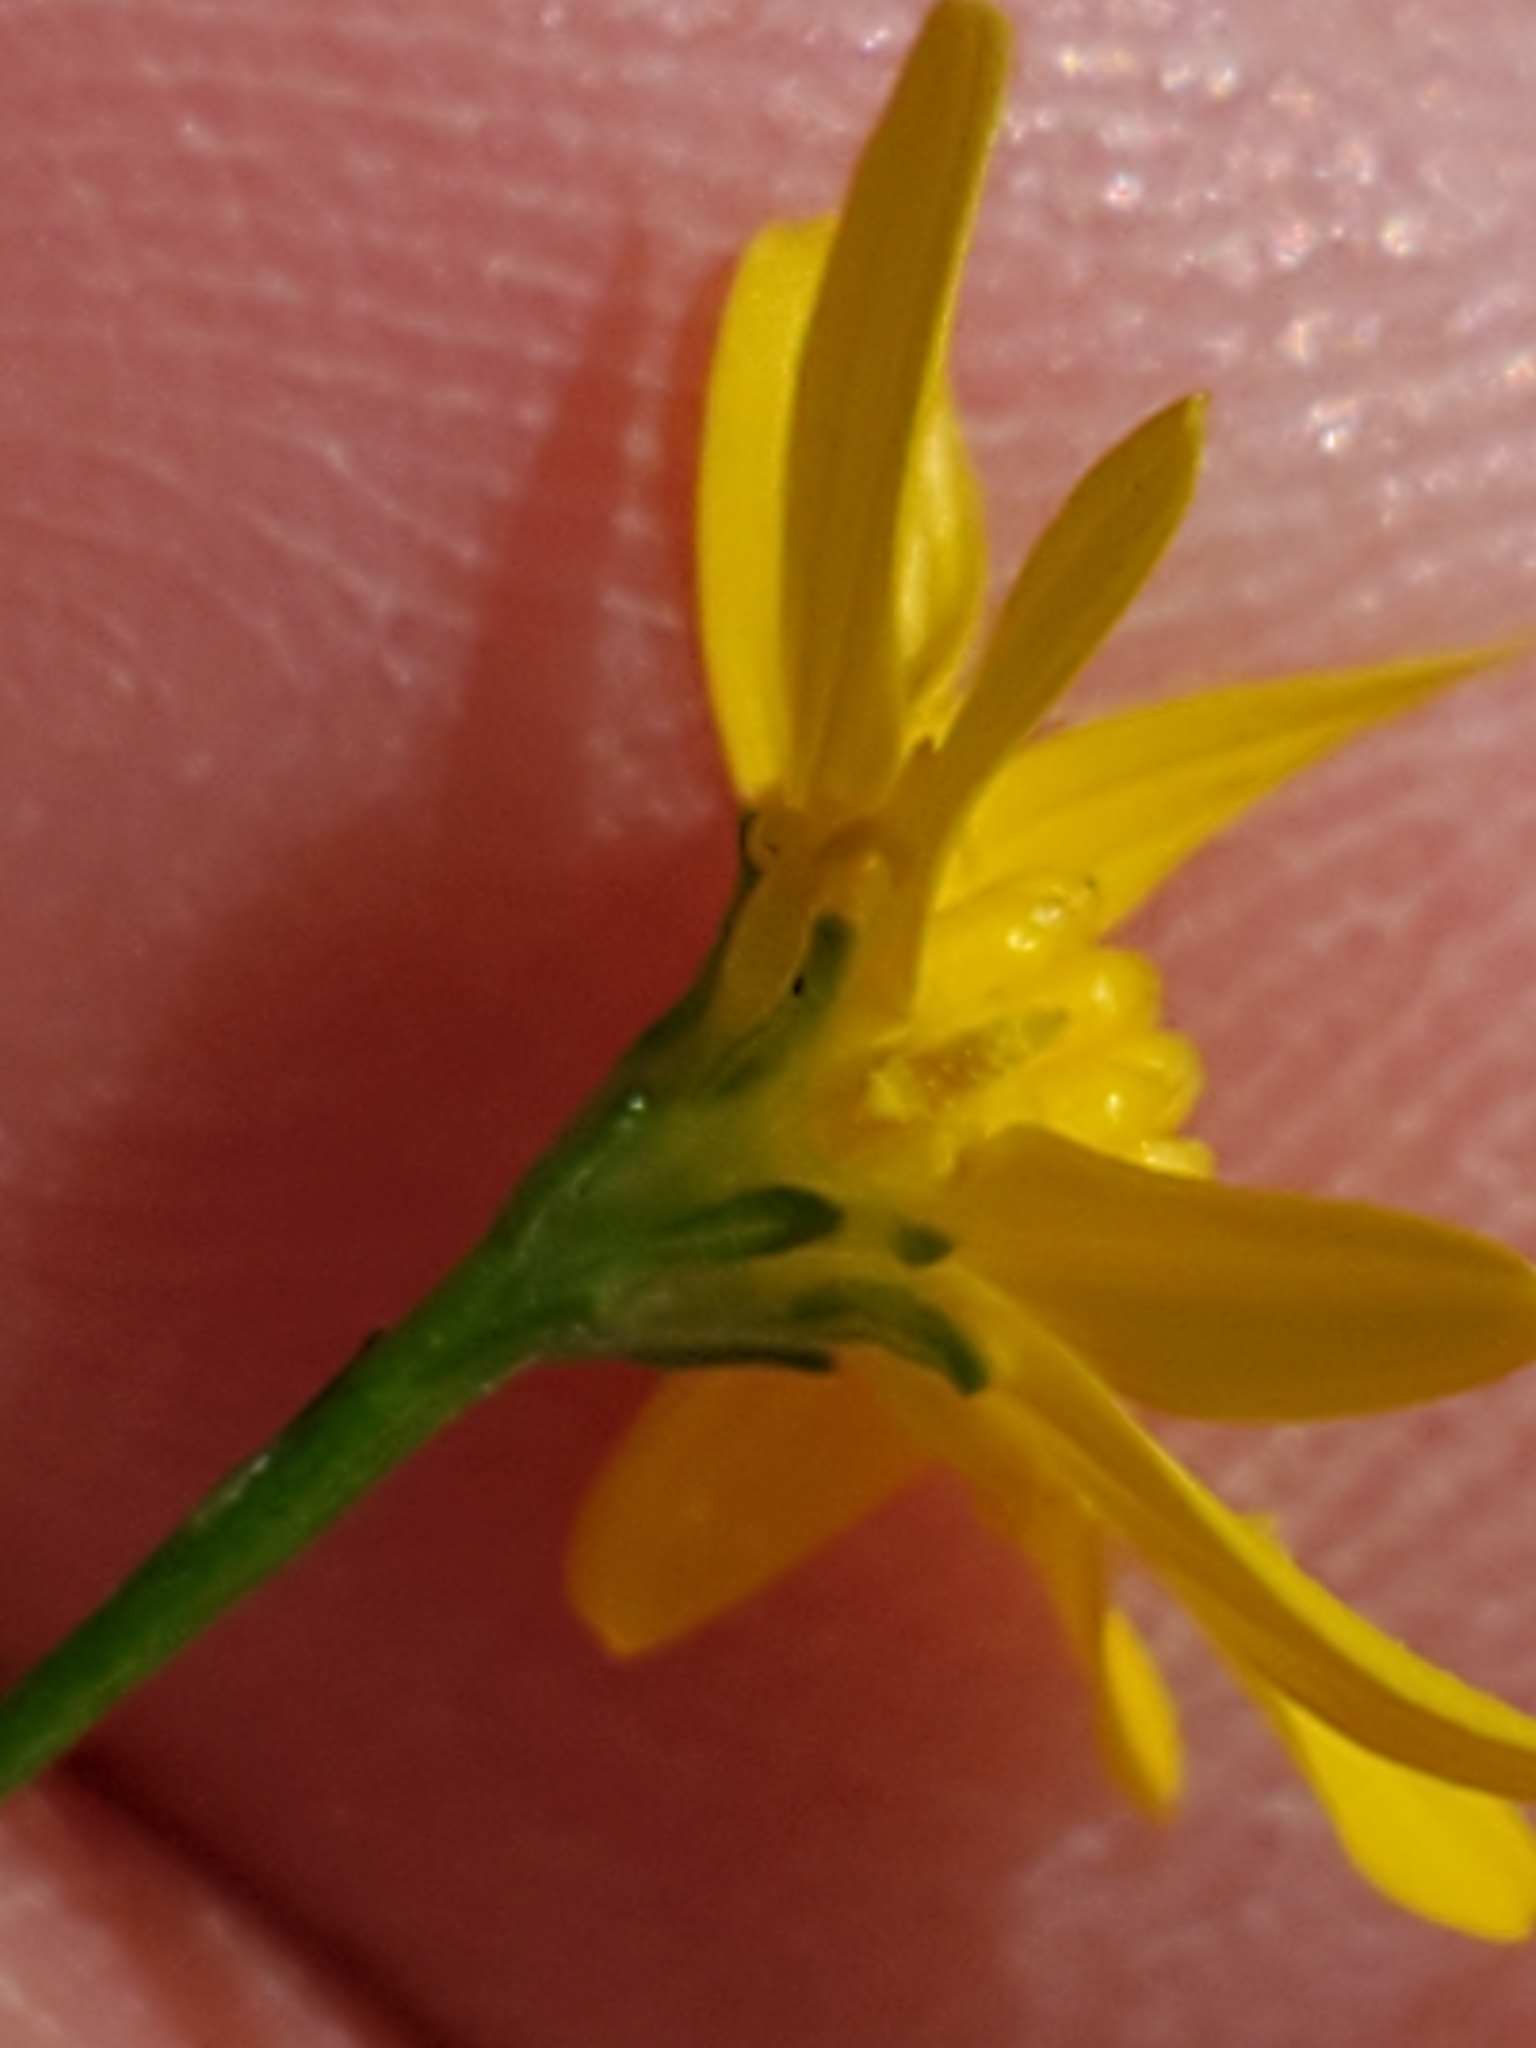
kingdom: Plantae
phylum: Tracheophyta
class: Magnoliopsida
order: Asterales
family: Asteraceae
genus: Gutierrezia
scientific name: Gutierrezia texana
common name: Texas snakeweed
